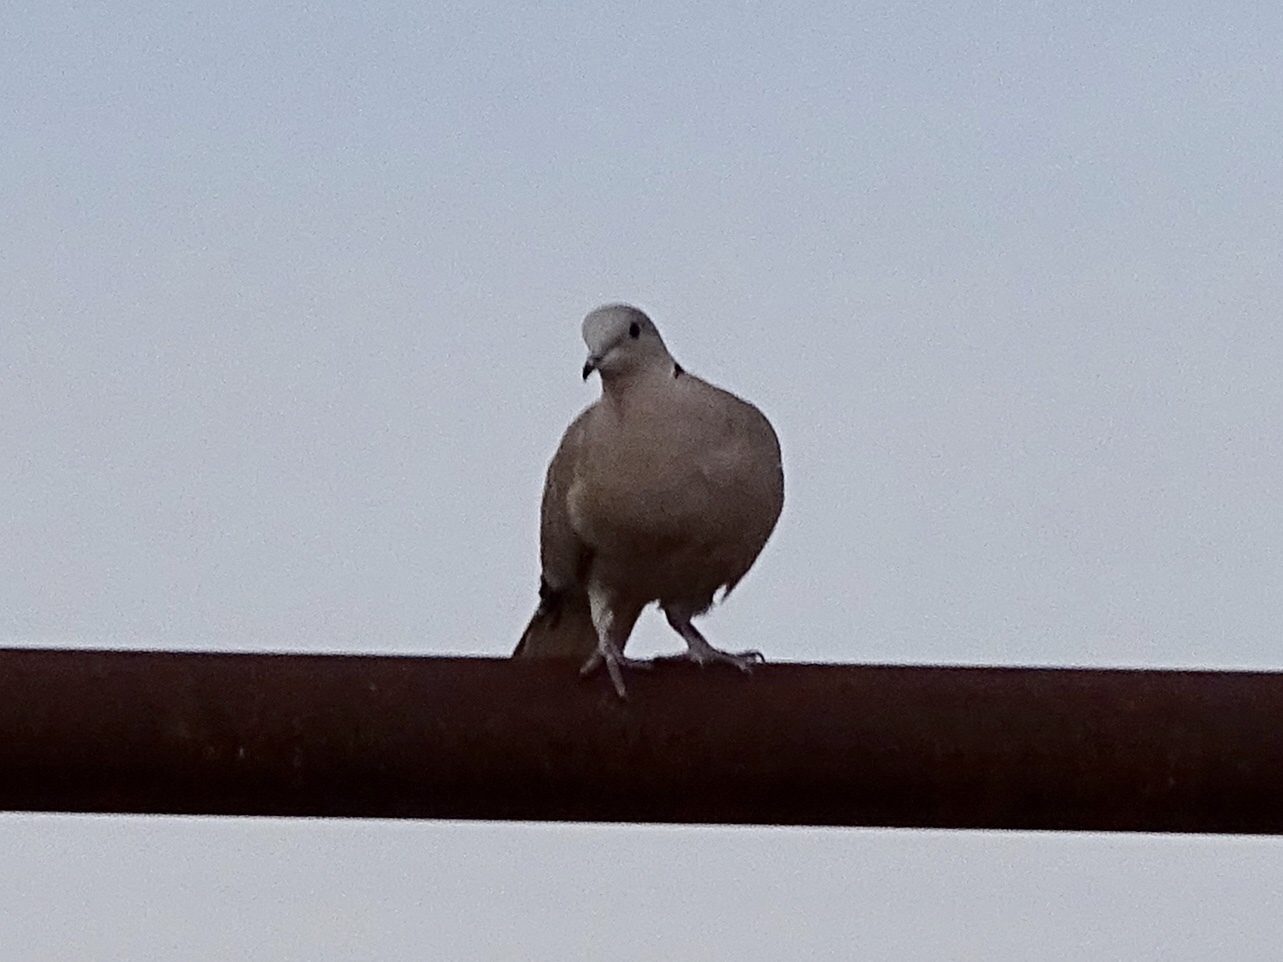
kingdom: Animalia
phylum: Chordata
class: Aves
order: Columbiformes
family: Columbidae
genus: Streptopelia
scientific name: Streptopelia decaocto
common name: Eurasian collared dove
